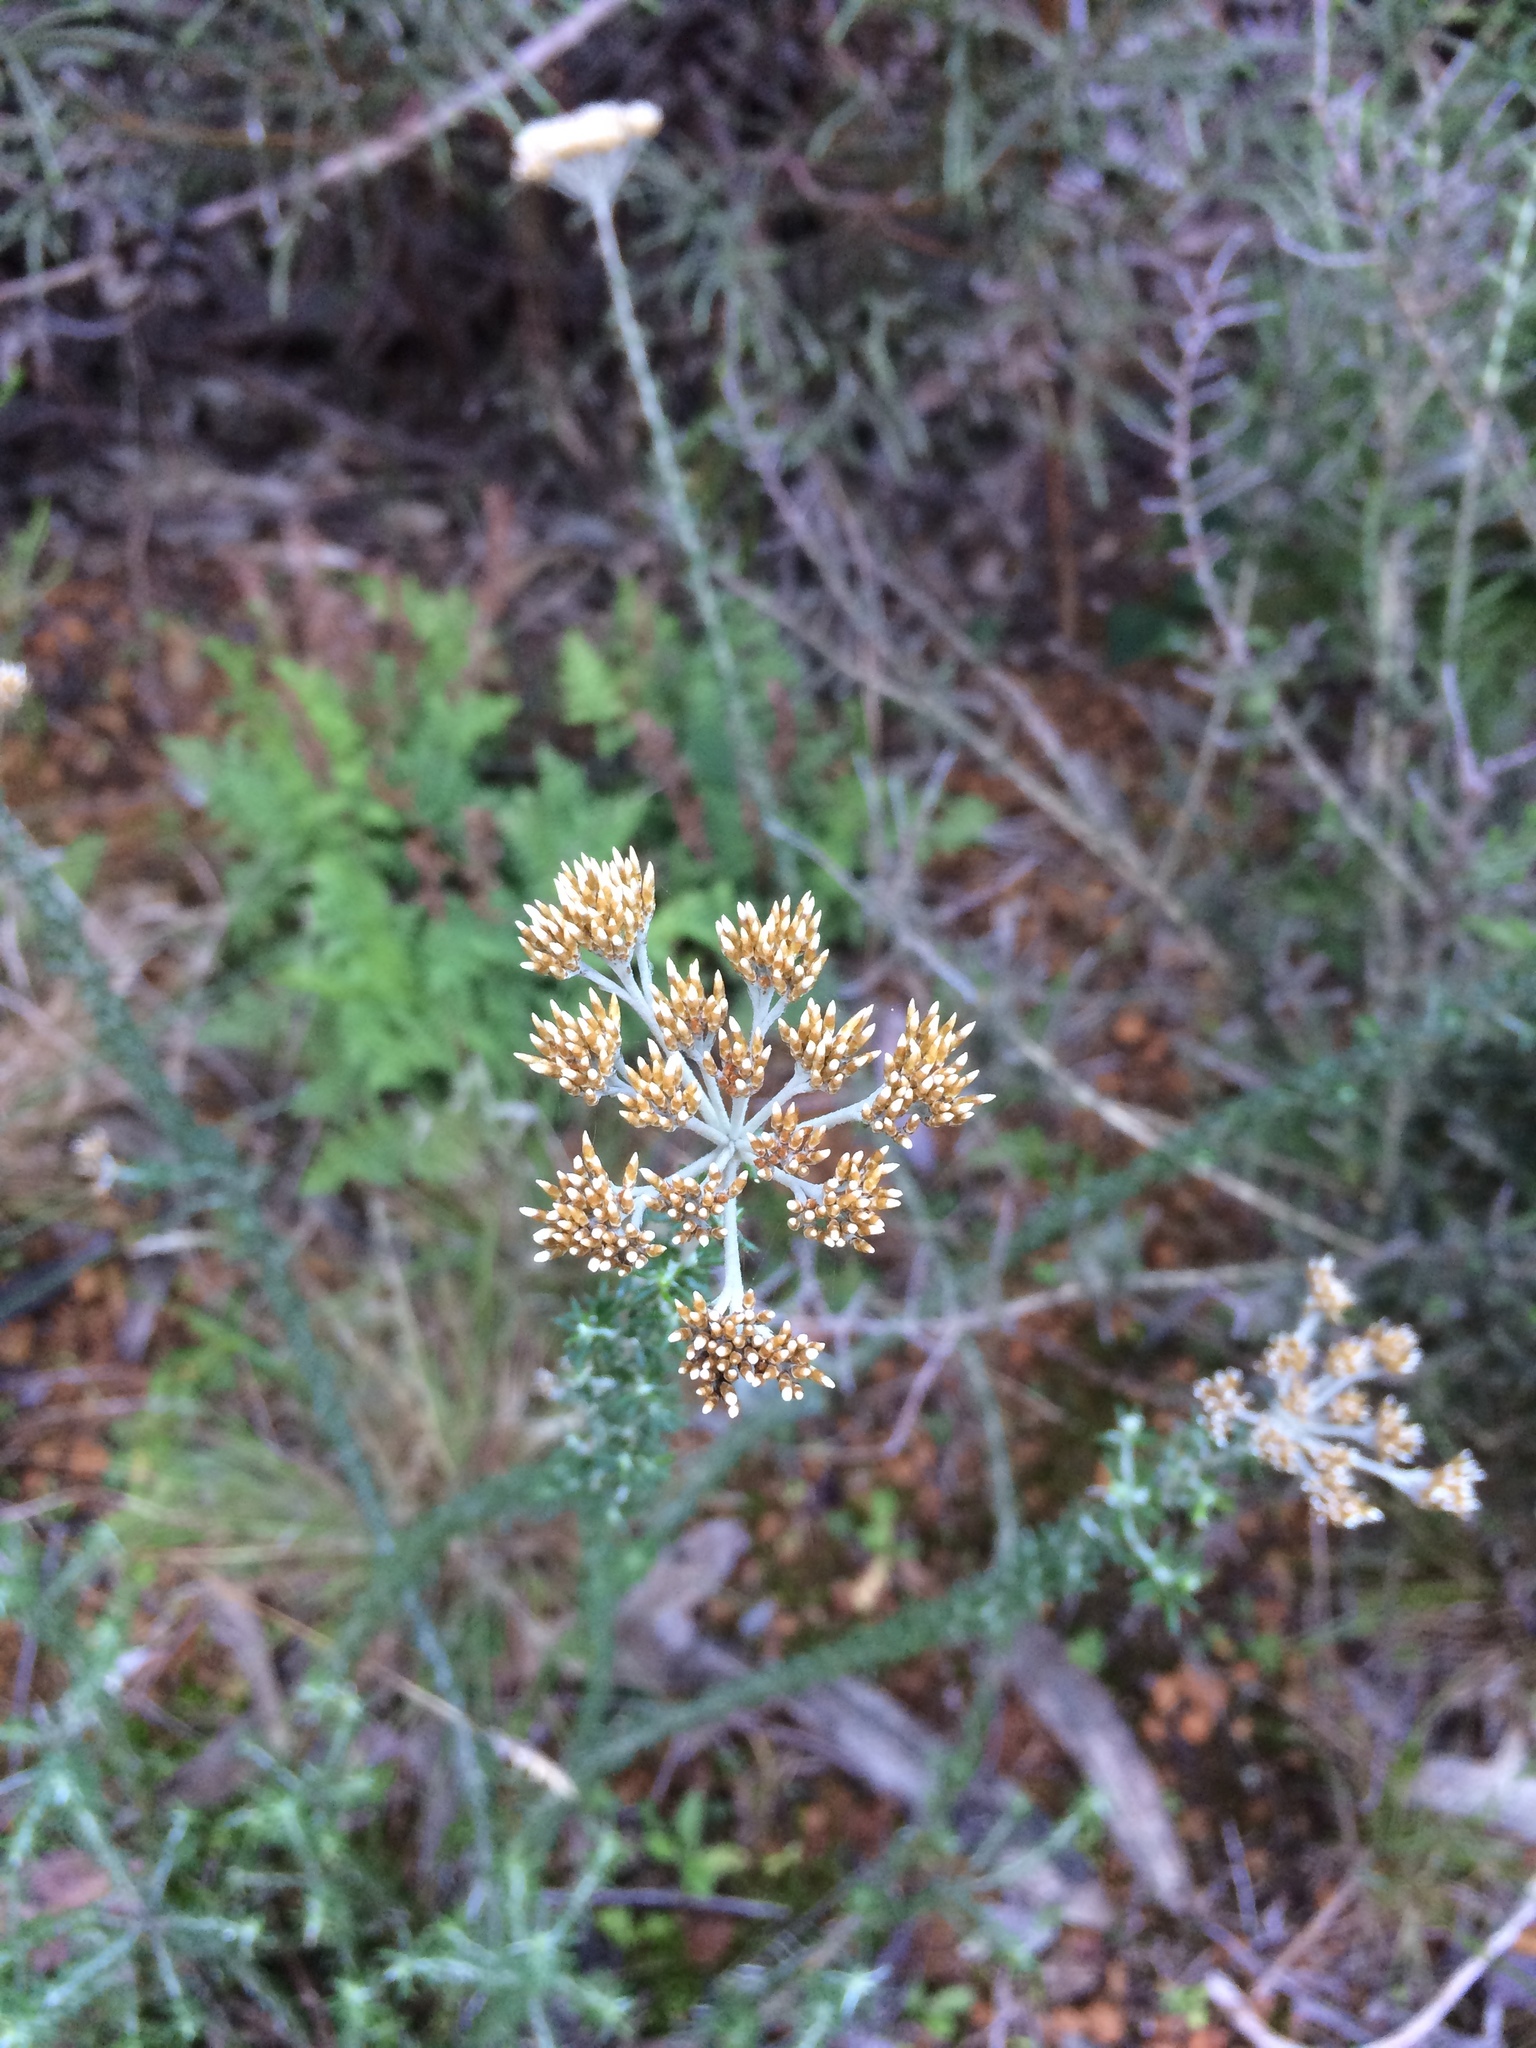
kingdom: Plantae
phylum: Tracheophyta
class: Magnoliopsida
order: Asterales
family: Asteraceae
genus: Metalasia
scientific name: Metalasia densa
